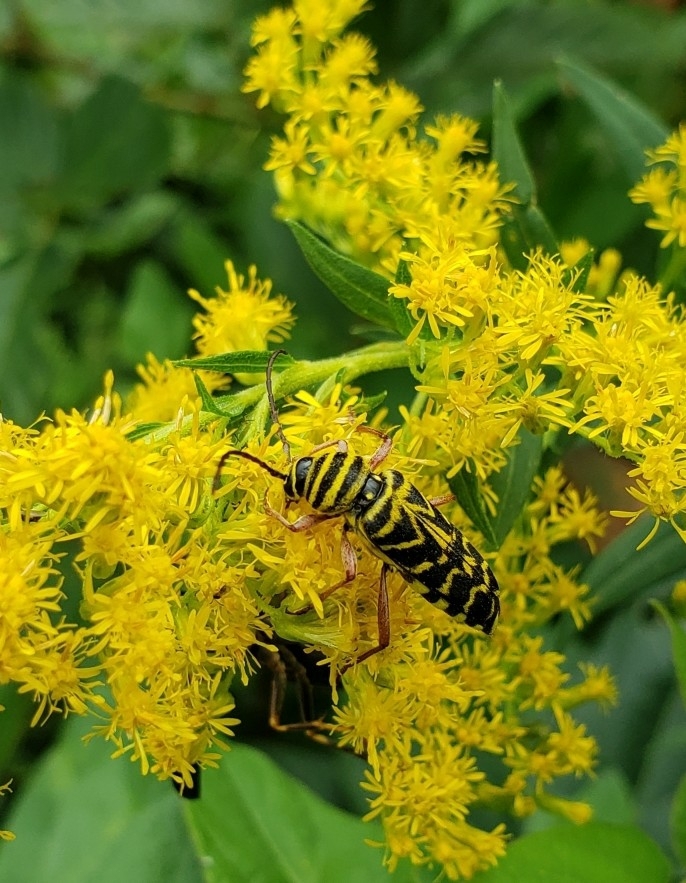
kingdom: Animalia
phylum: Arthropoda
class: Insecta
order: Coleoptera
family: Cerambycidae
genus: Megacyllene
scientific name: Megacyllene robiniae
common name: Locust borer
